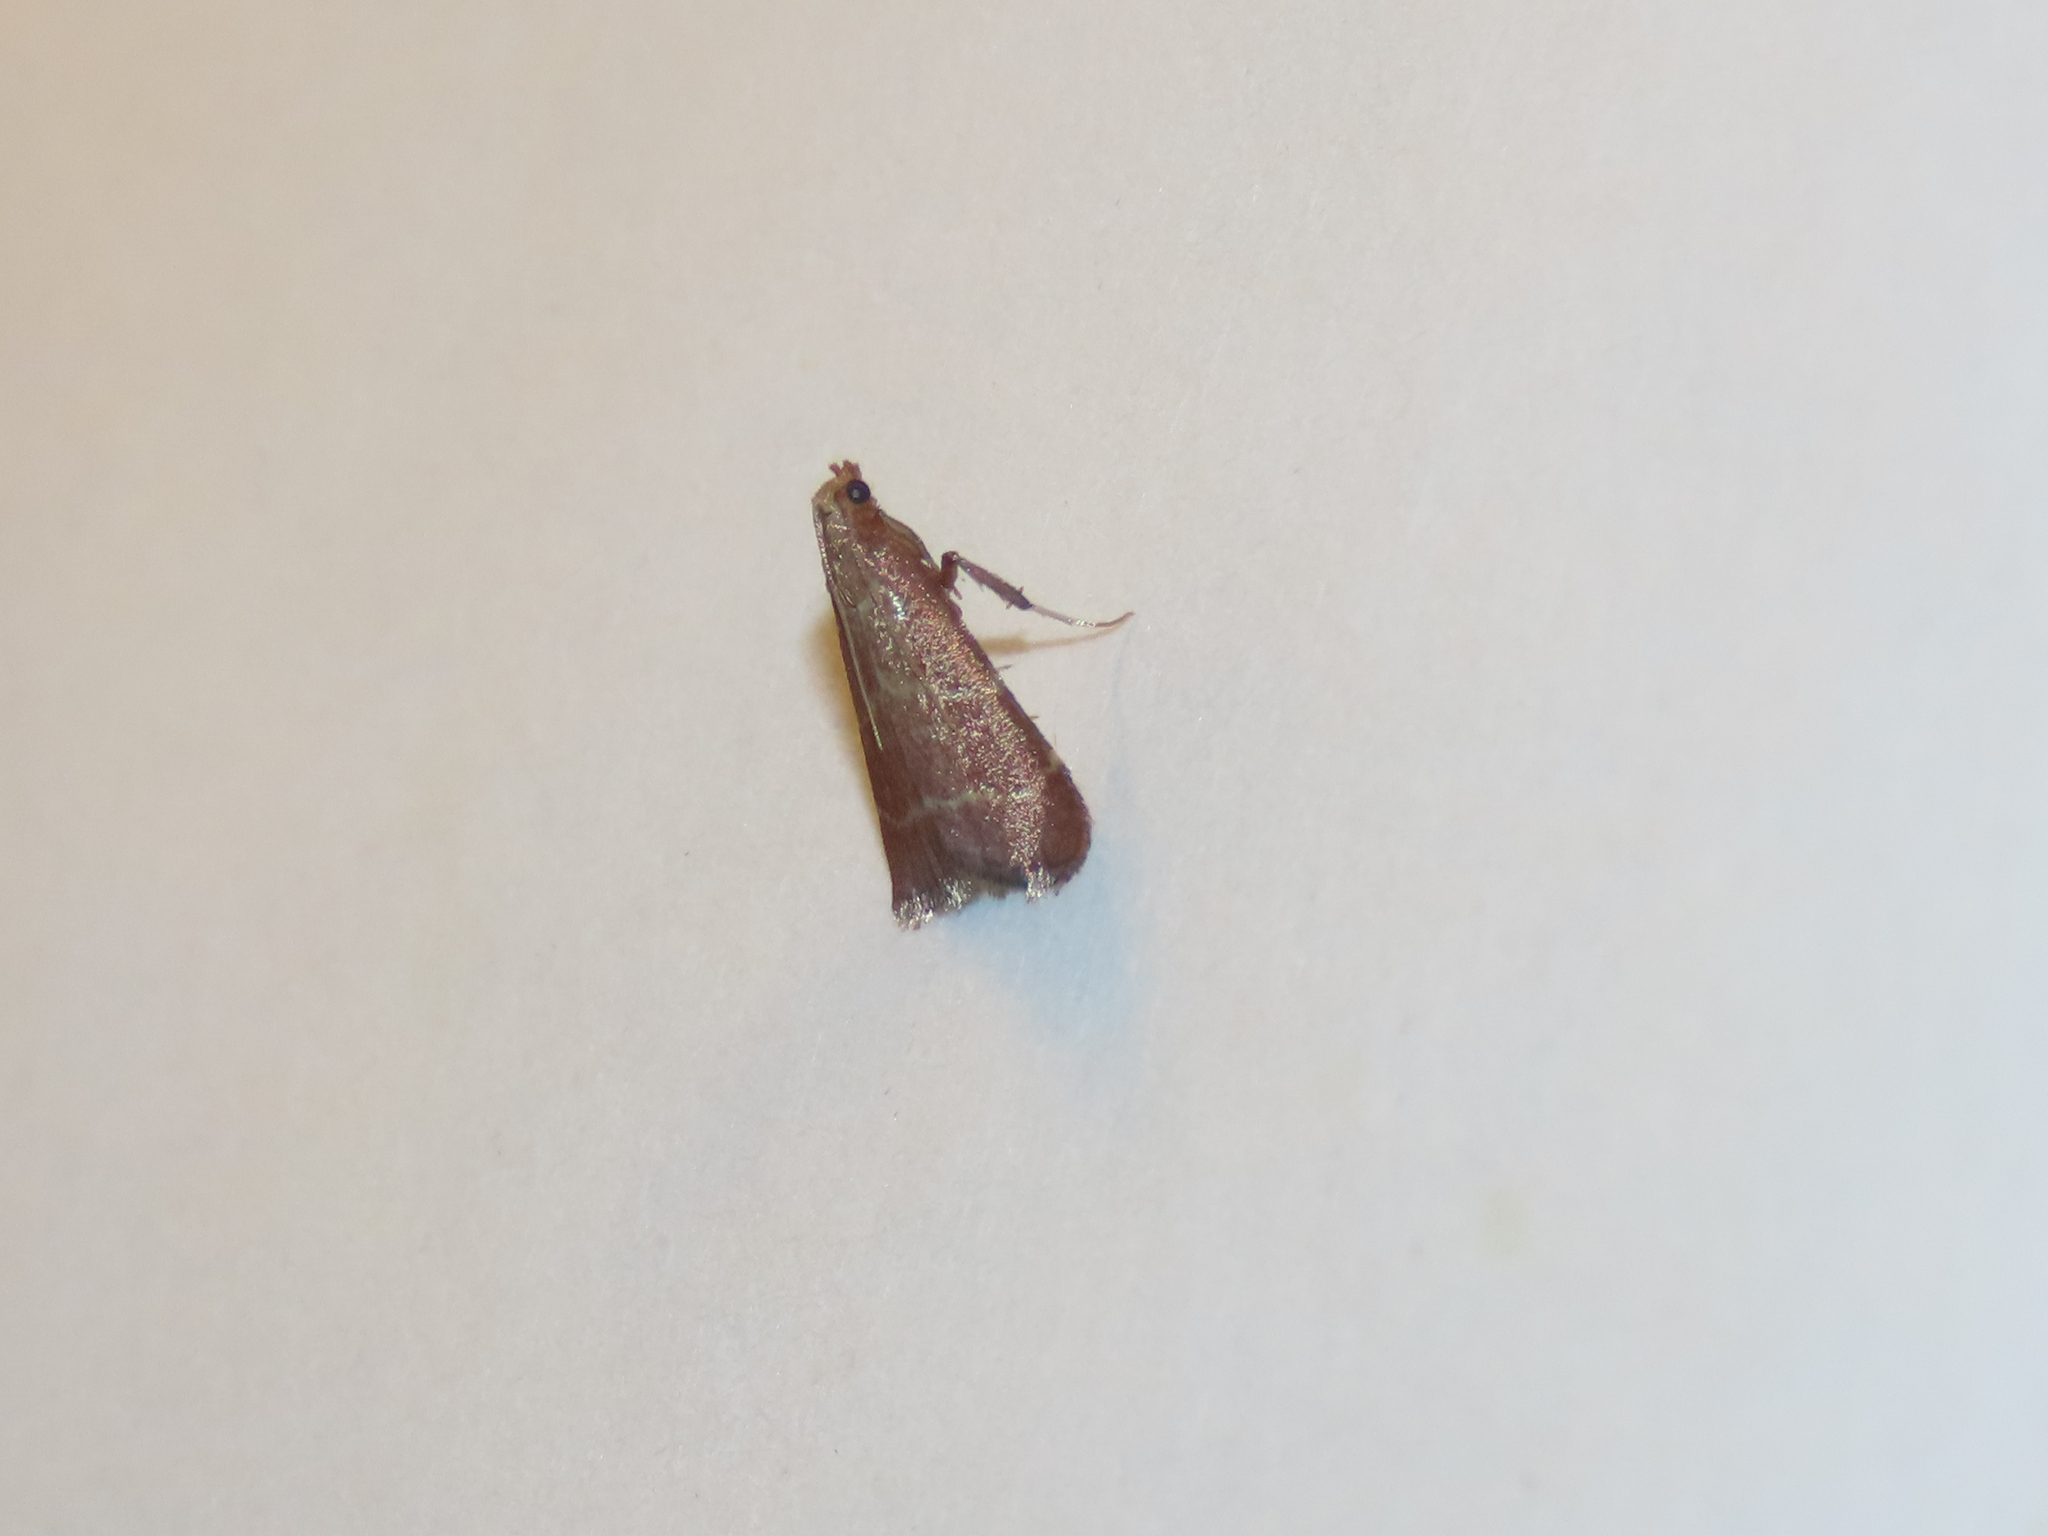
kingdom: Animalia
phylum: Arthropoda
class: Insecta
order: Lepidoptera
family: Pyralidae
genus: Arta
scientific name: Arta statalis
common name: Posturing arta moth
